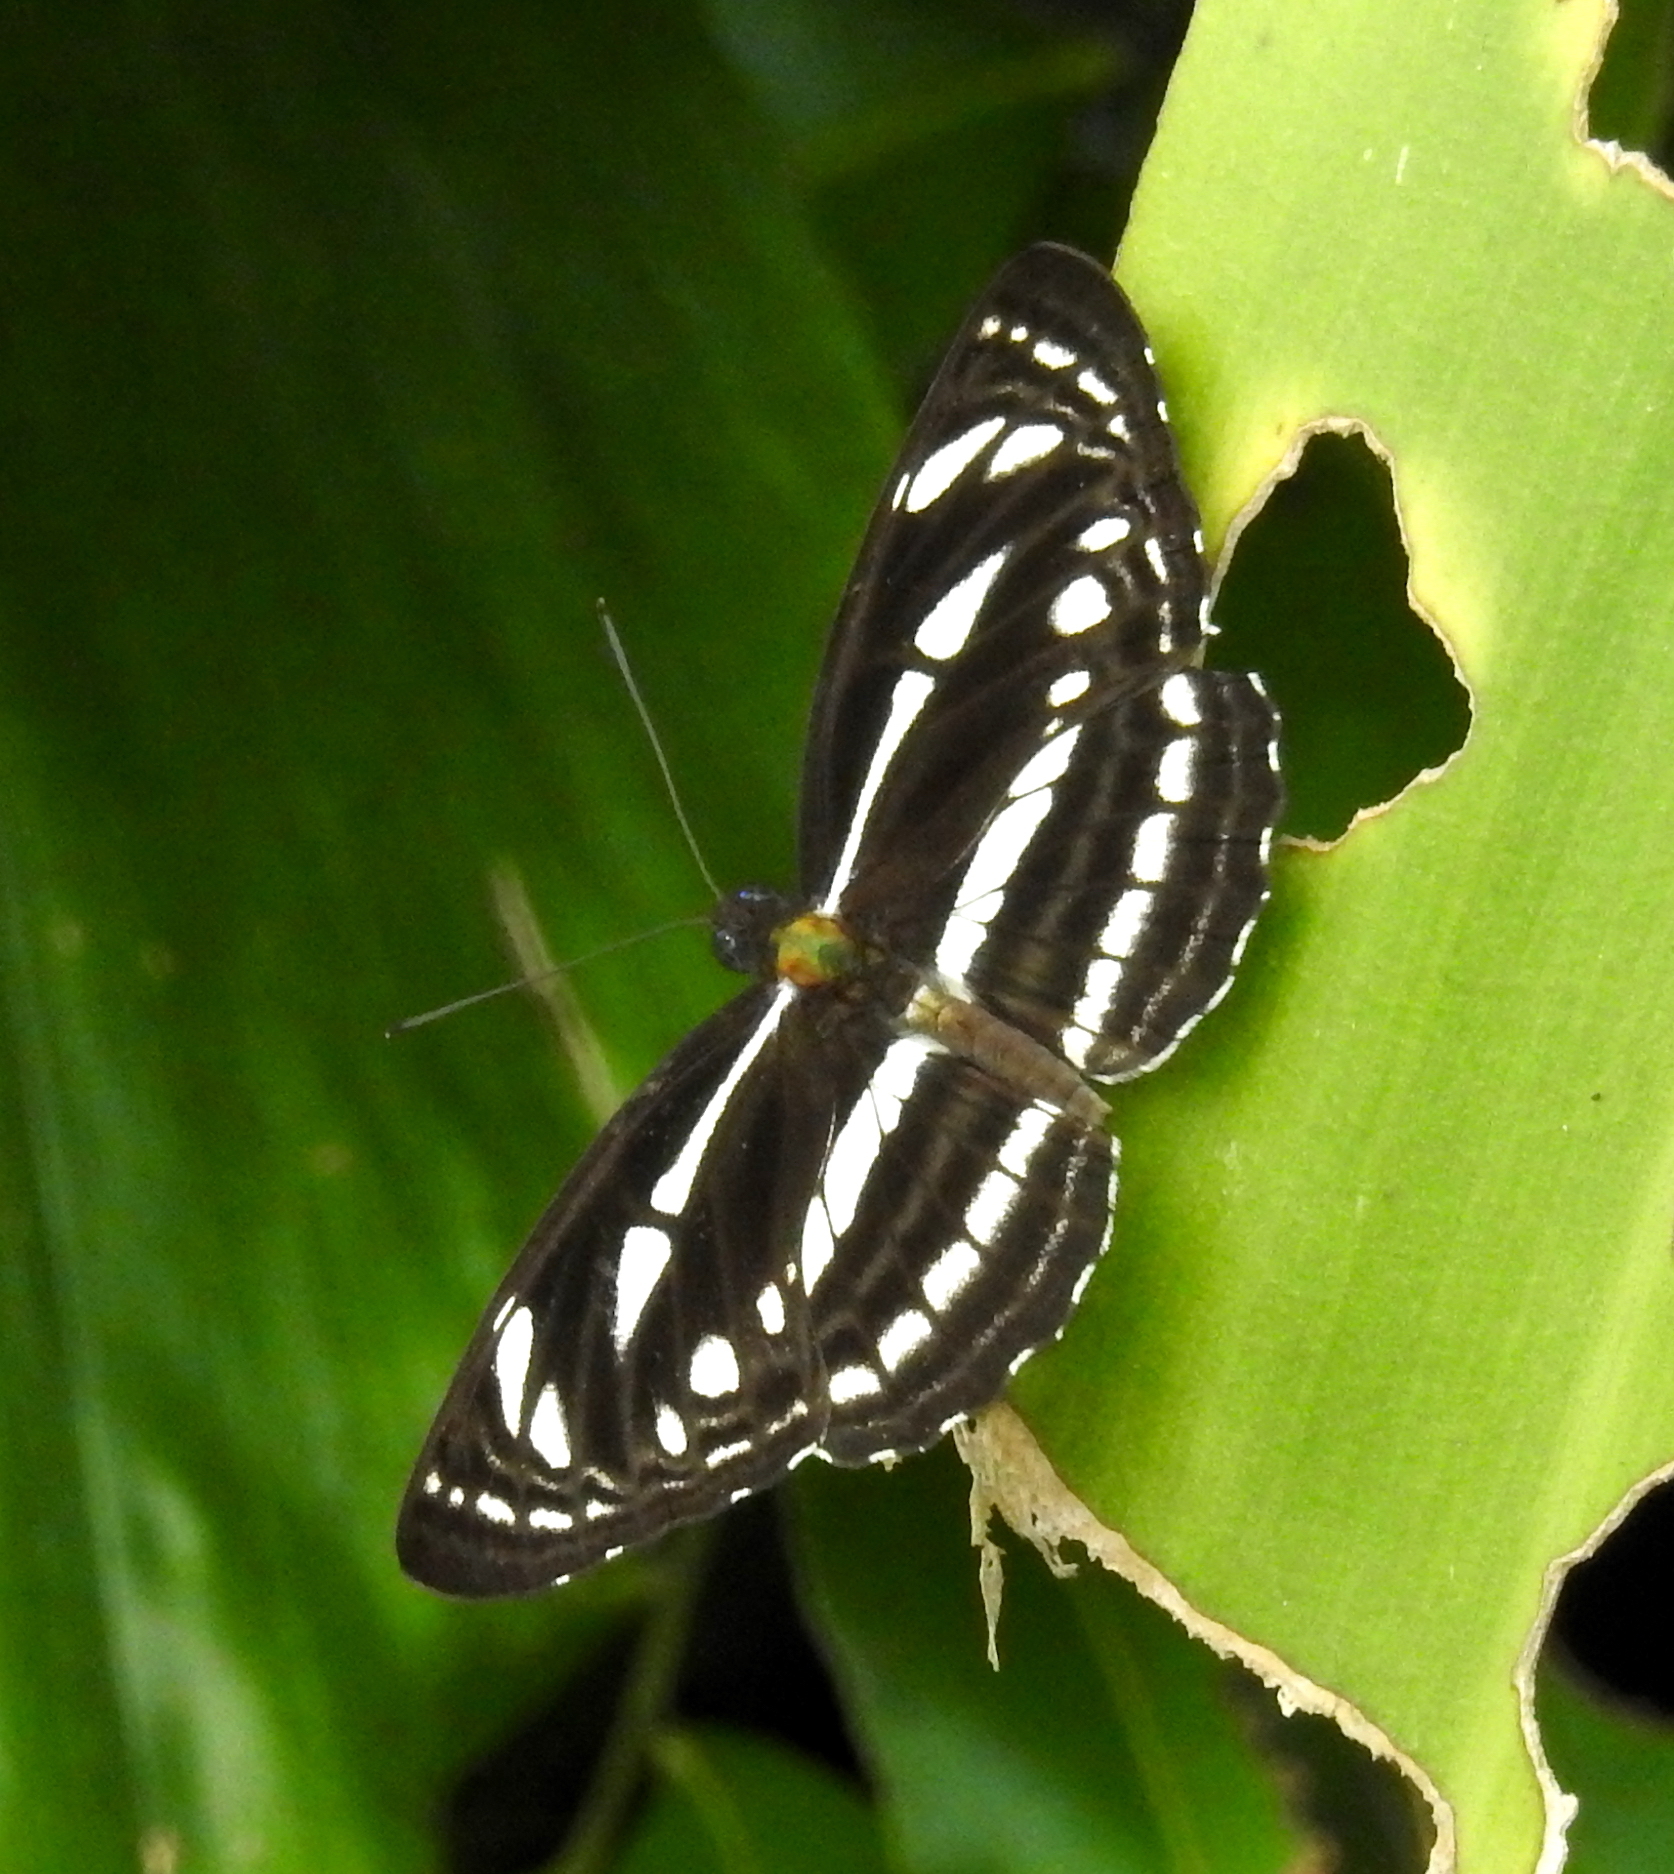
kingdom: Animalia
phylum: Arthropoda
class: Insecta
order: Lepidoptera
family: Nymphalidae
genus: Neptis
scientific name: Neptis leucoporus
